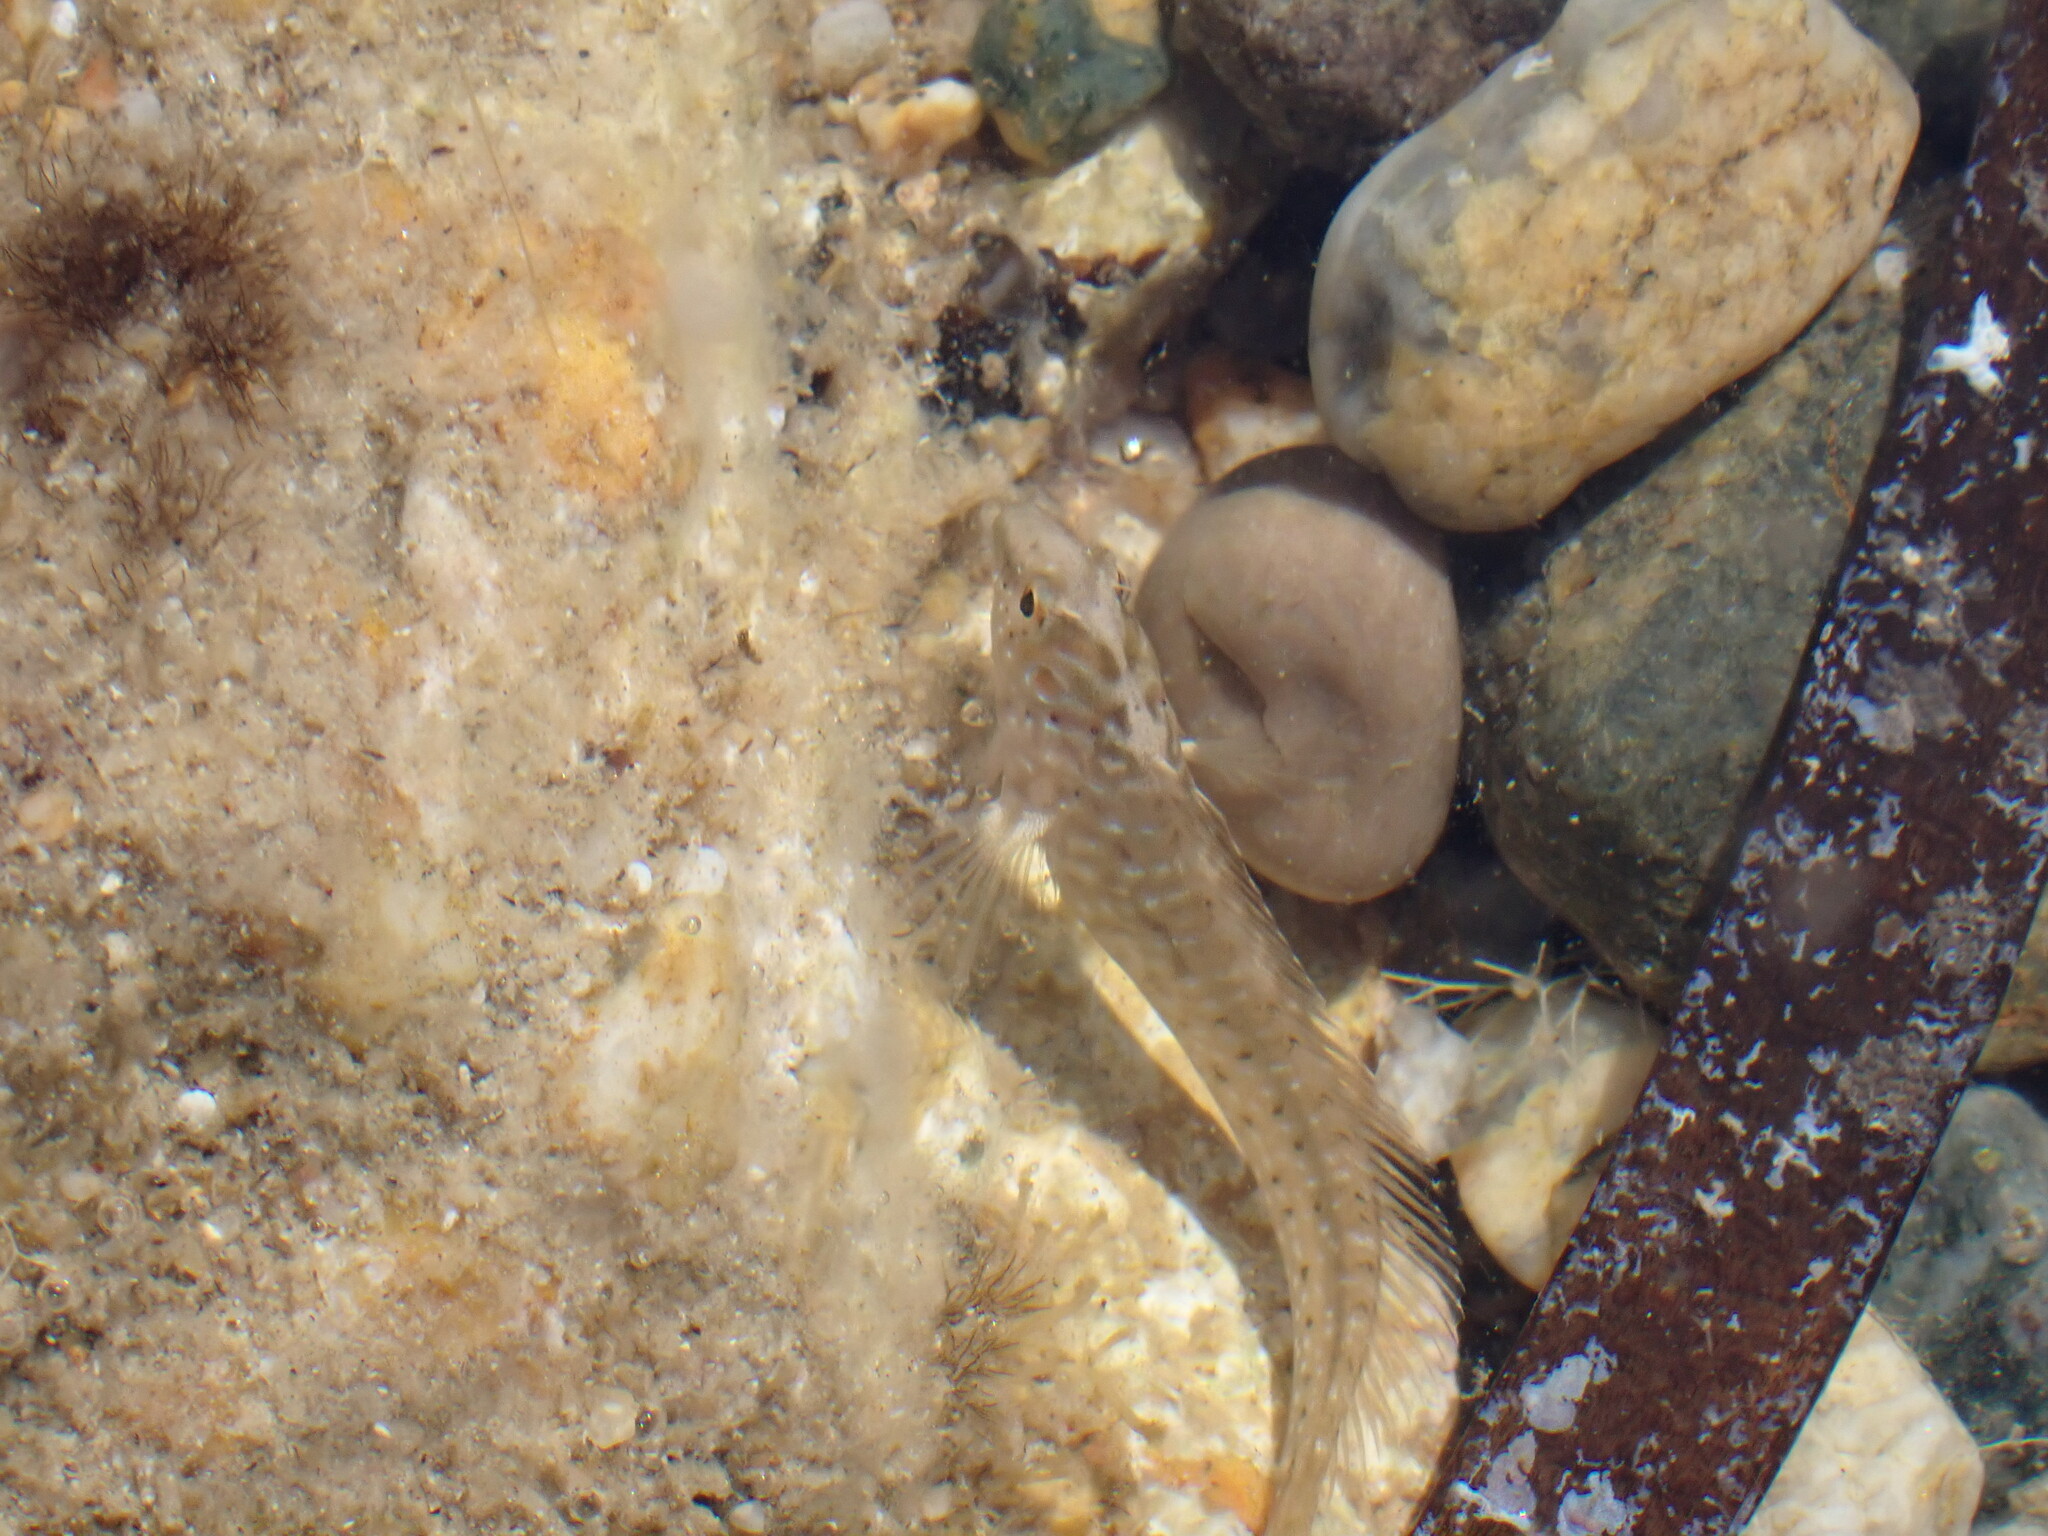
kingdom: Animalia
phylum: Chordata
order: Perciformes
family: Blenniidae
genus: Salaria
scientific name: Salaria pavo
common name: Peacock blenny
